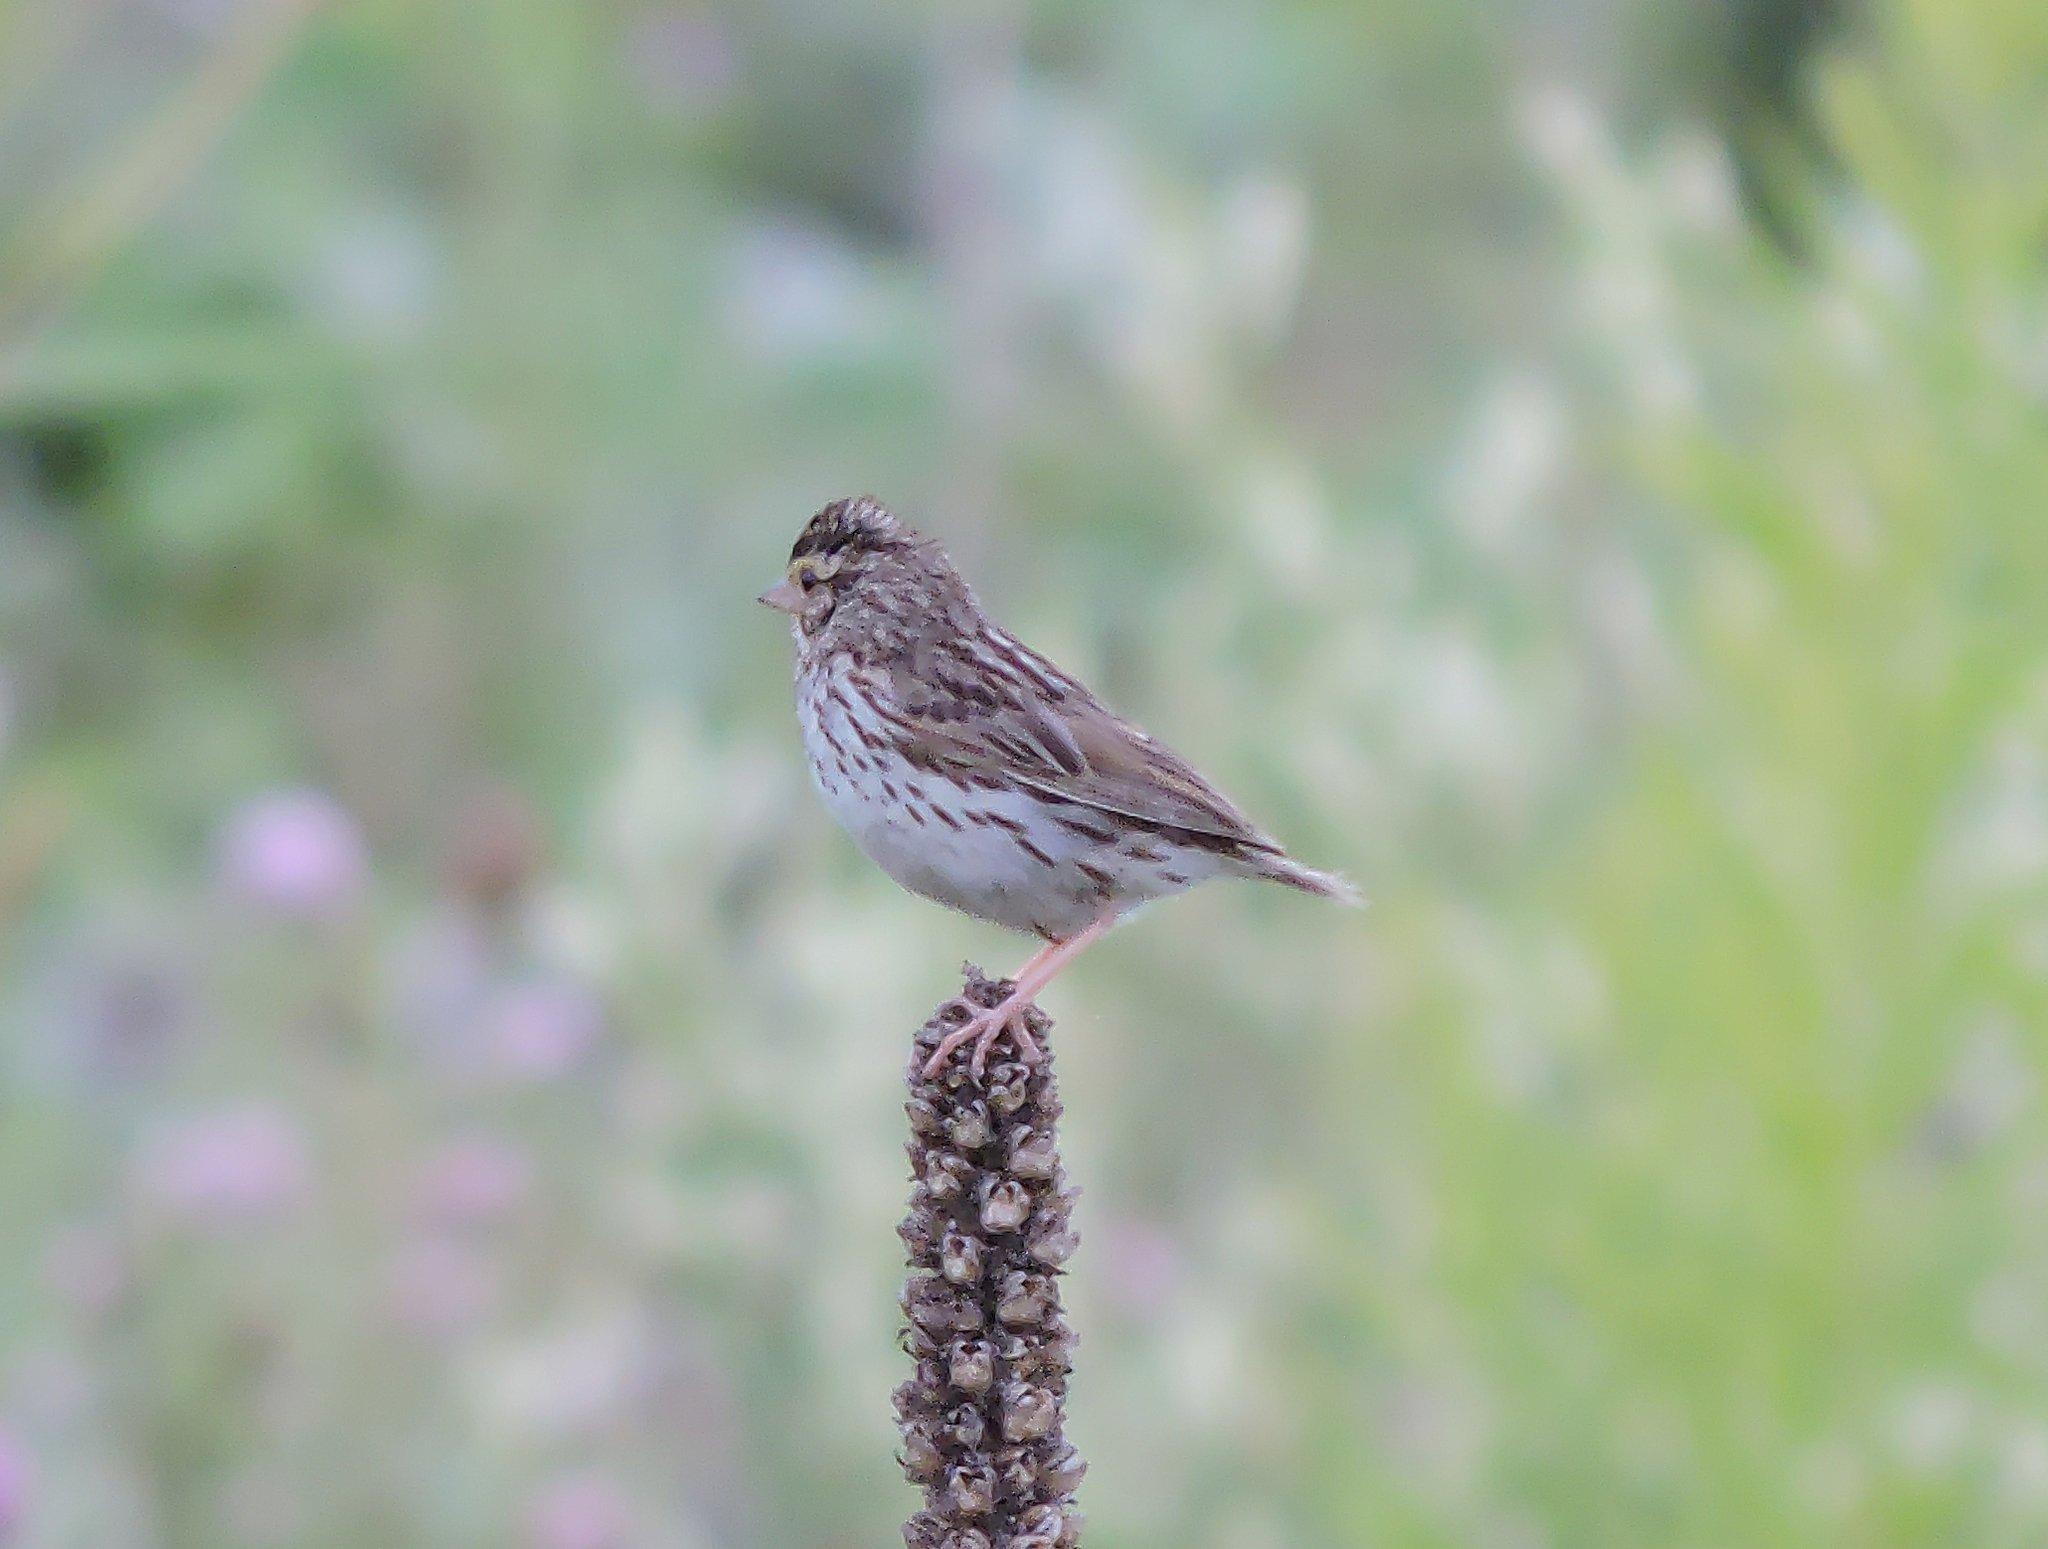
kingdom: Animalia
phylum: Chordata
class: Aves
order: Passeriformes
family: Passerellidae
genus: Passerculus
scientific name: Passerculus sandwichensis
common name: Savannah sparrow
